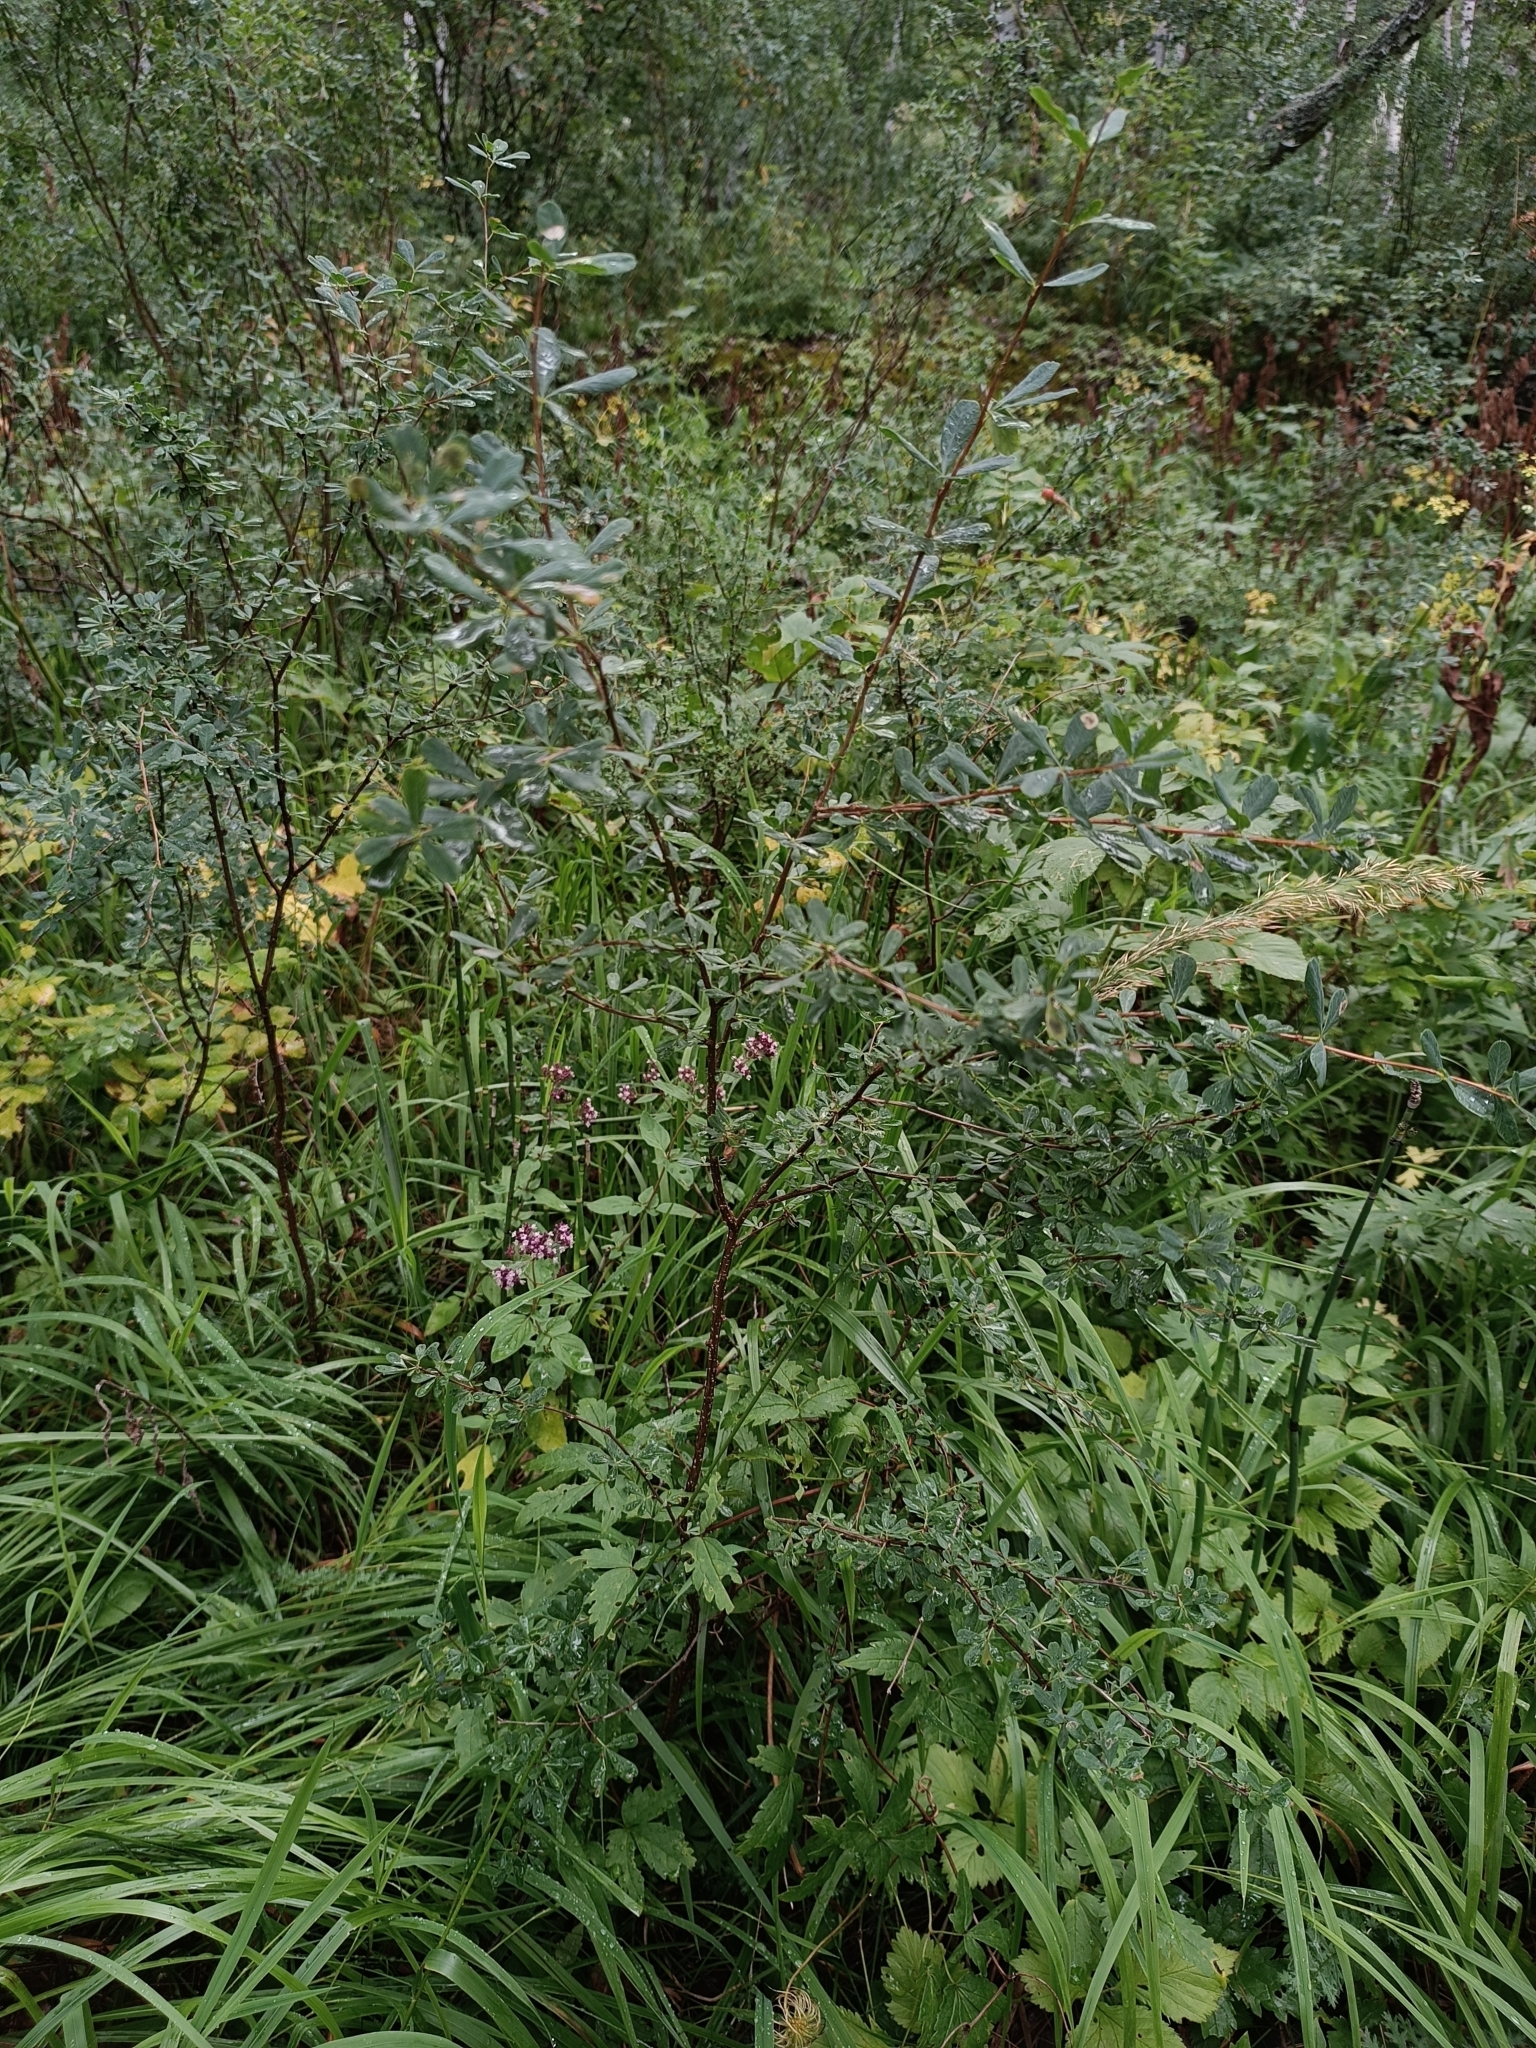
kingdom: Plantae
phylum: Tracheophyta
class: Magnoliopsida
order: Fabales
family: Fabaceae
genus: Caragana
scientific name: Caragana frutex
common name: Russian peashrub
